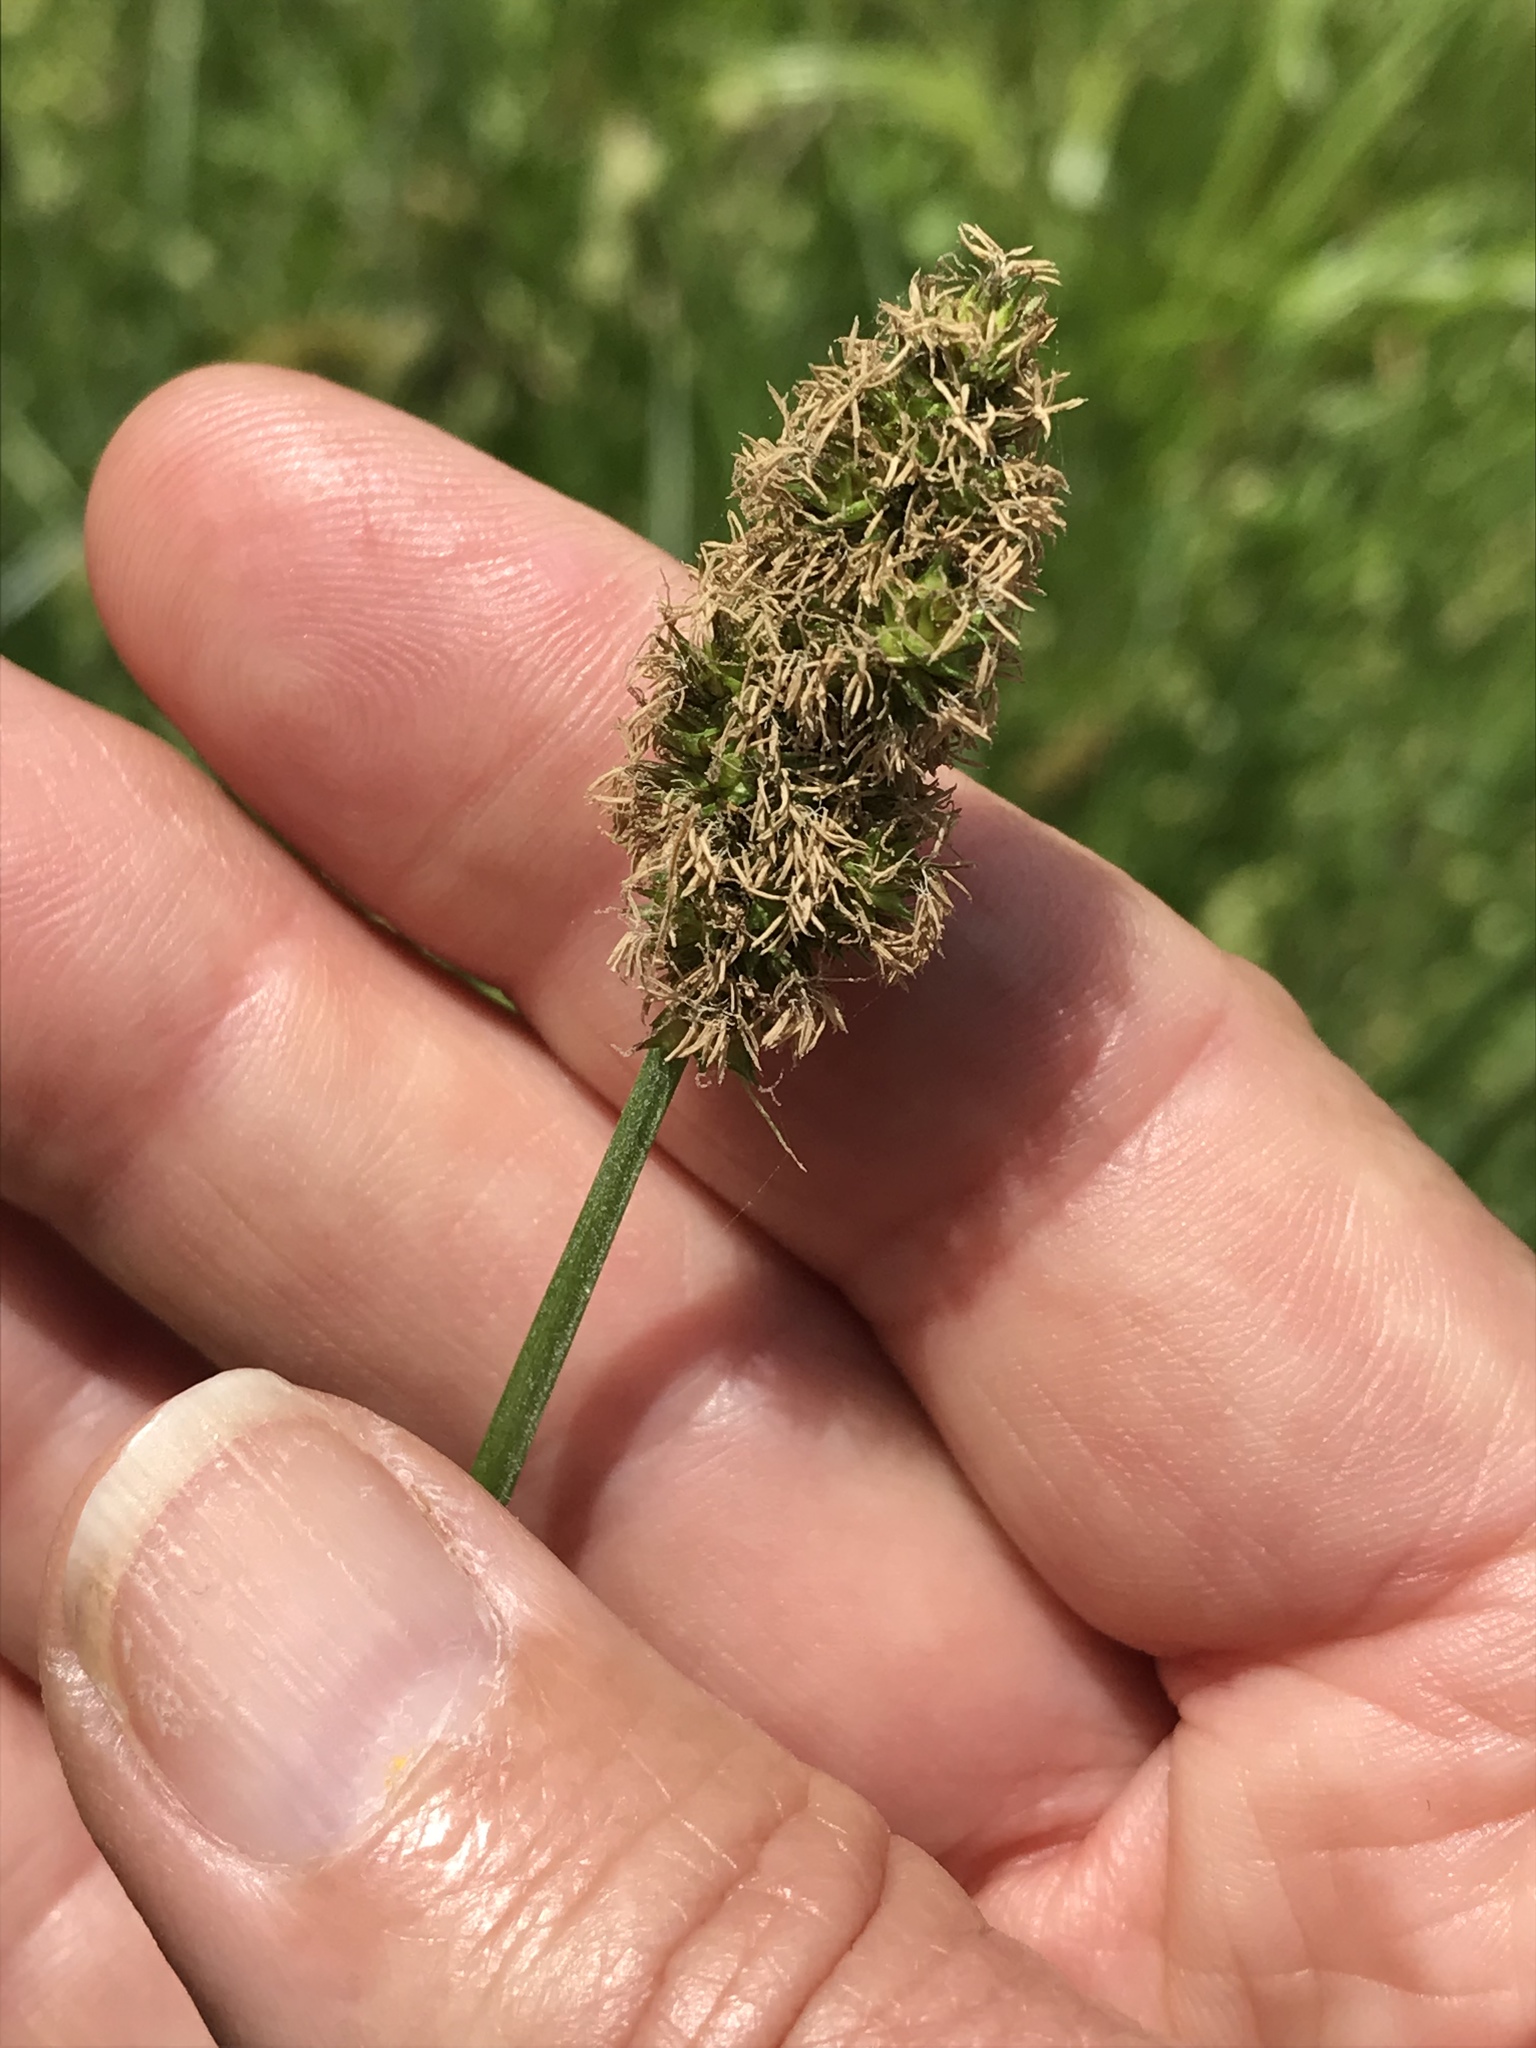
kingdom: Plantae
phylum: Tracheophyta
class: Liliopsida
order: Poales
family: Cyperaceae
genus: Carex
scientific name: Carex densa
